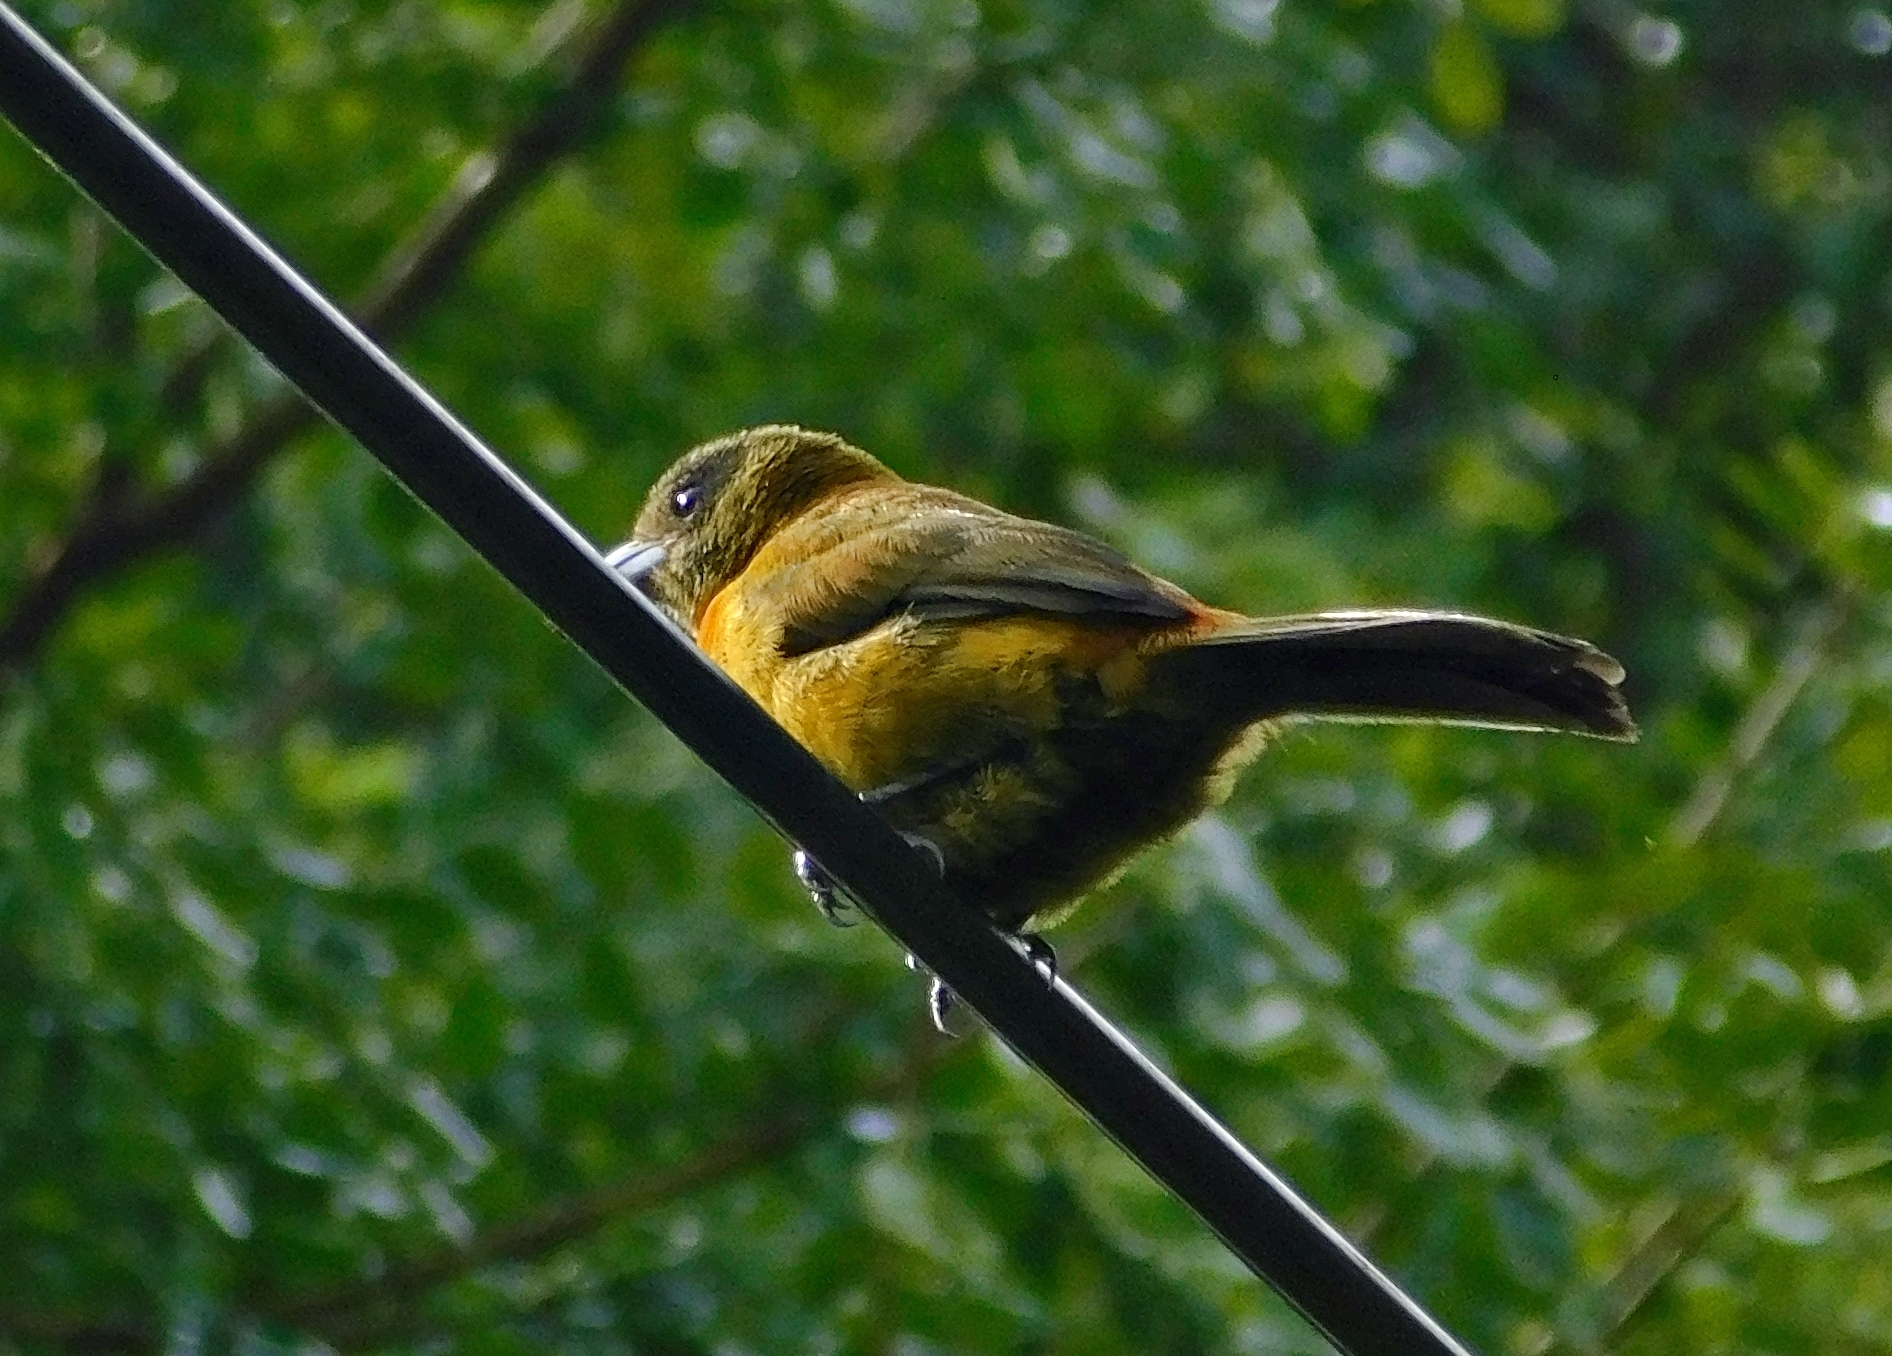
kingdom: Animalia
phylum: Chordata
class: Aves
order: Passeriformes
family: Thraupidae
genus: Ramphocelus
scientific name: Ramphocelus passerinii
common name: Passerini's tanager
